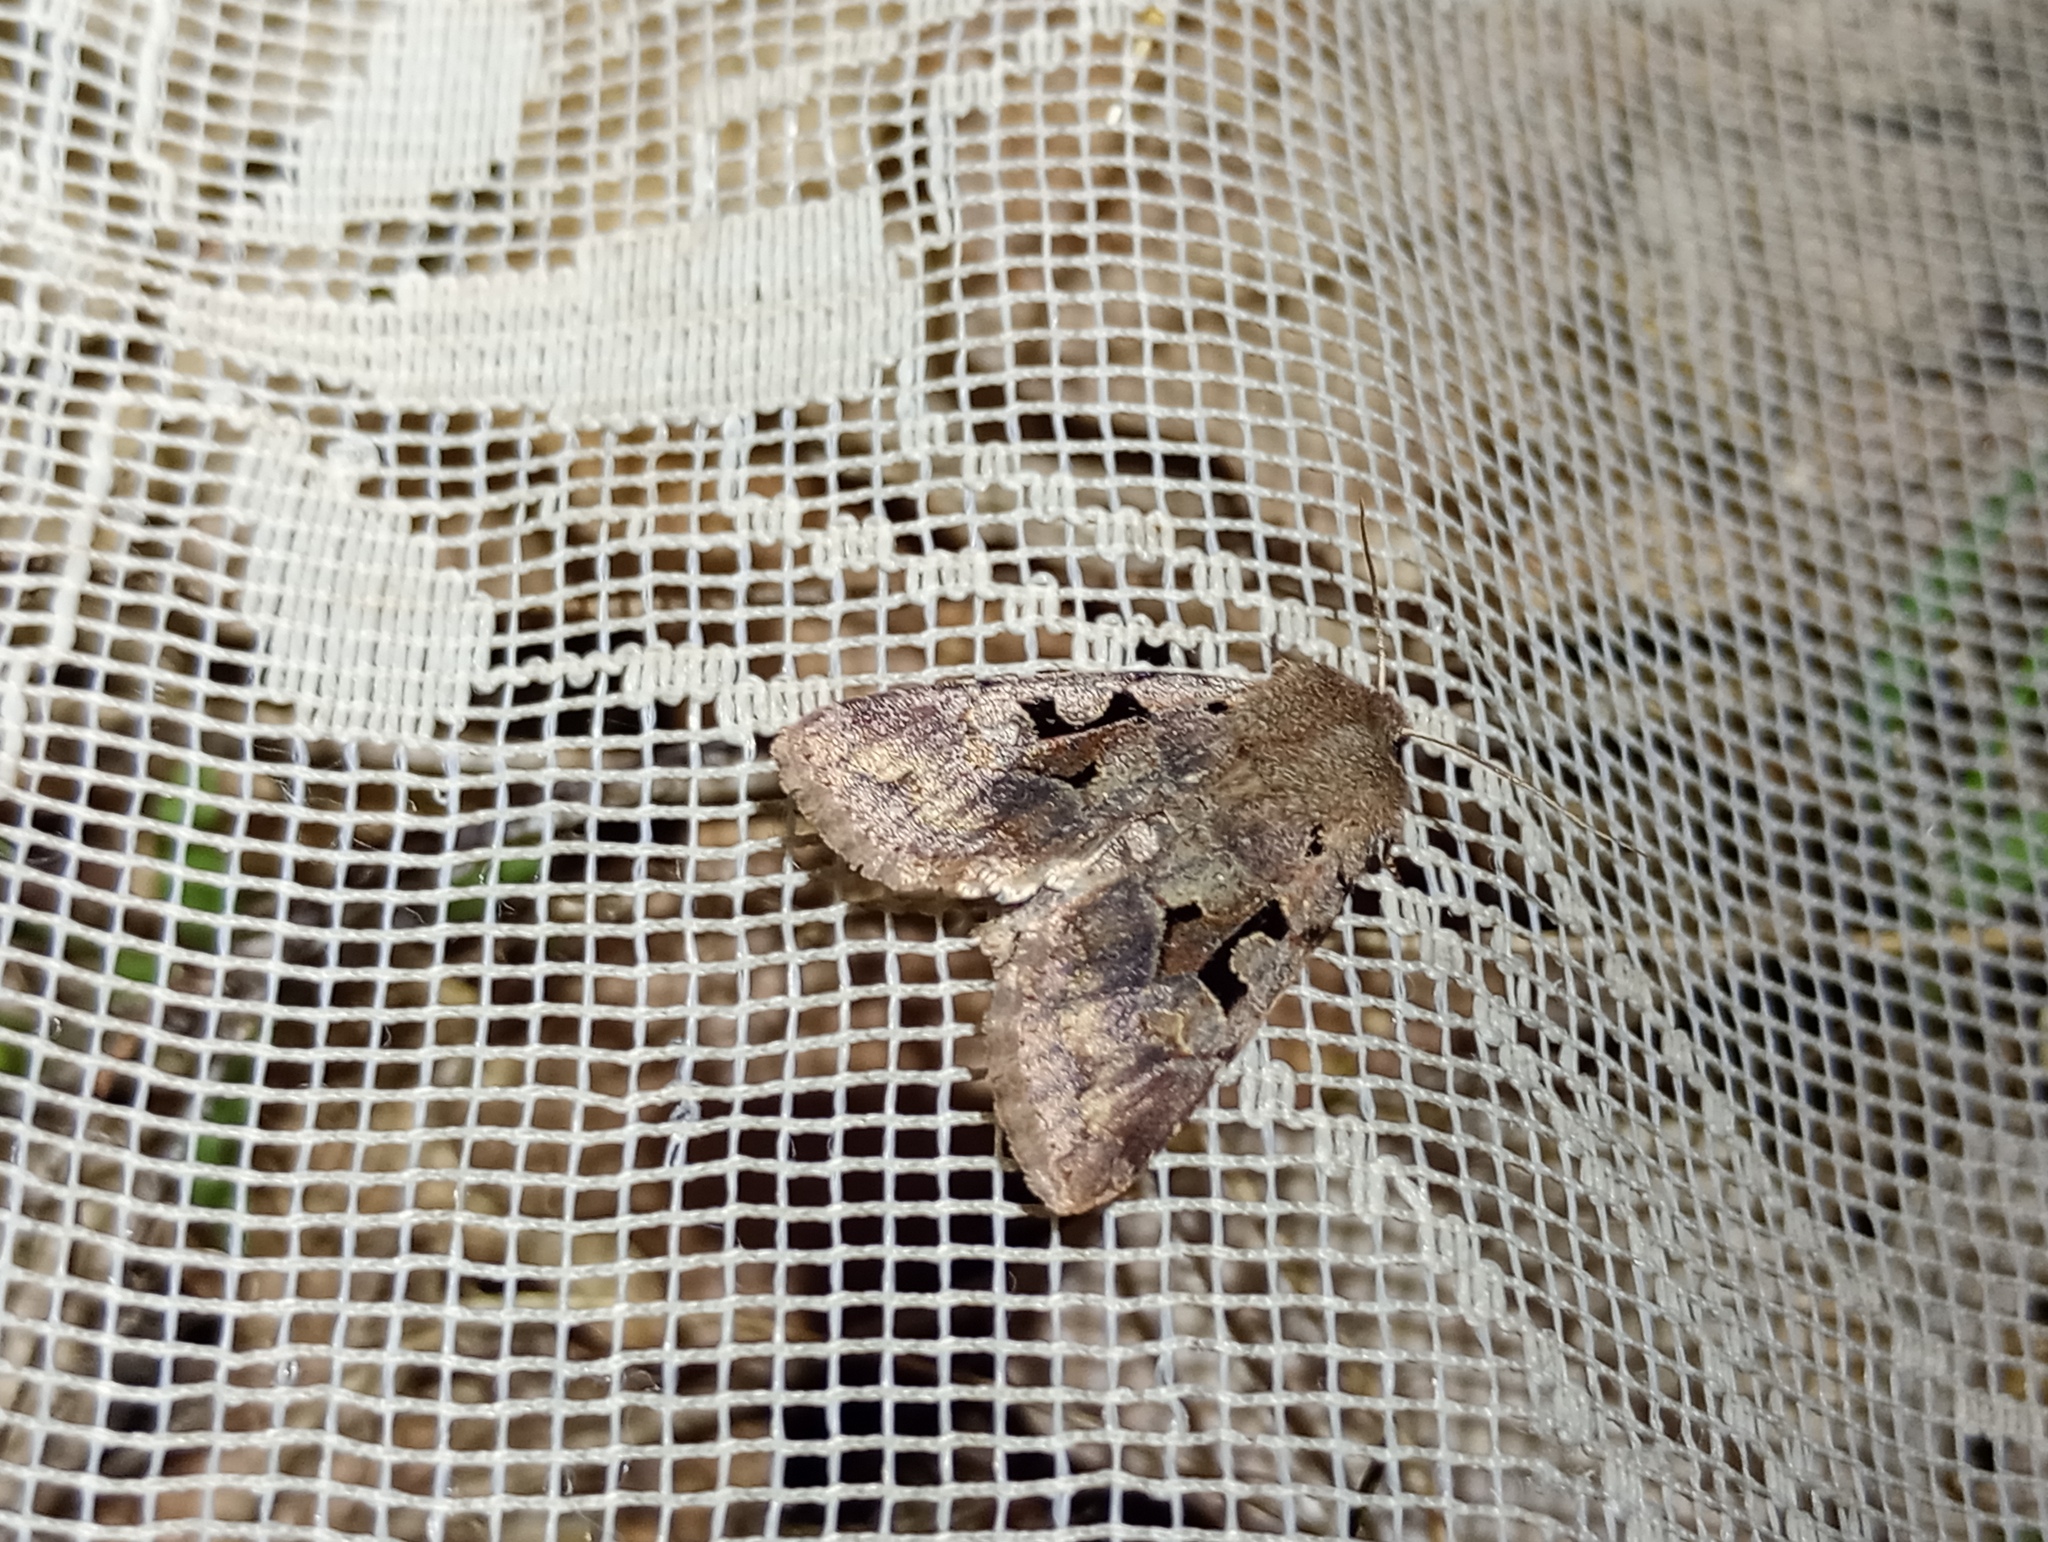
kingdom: Animalia
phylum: Arthropoda
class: Insecta
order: Lepidoptera
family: Noctuidae
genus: Orthosia
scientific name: Orthosia gothica
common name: Hebrew character
